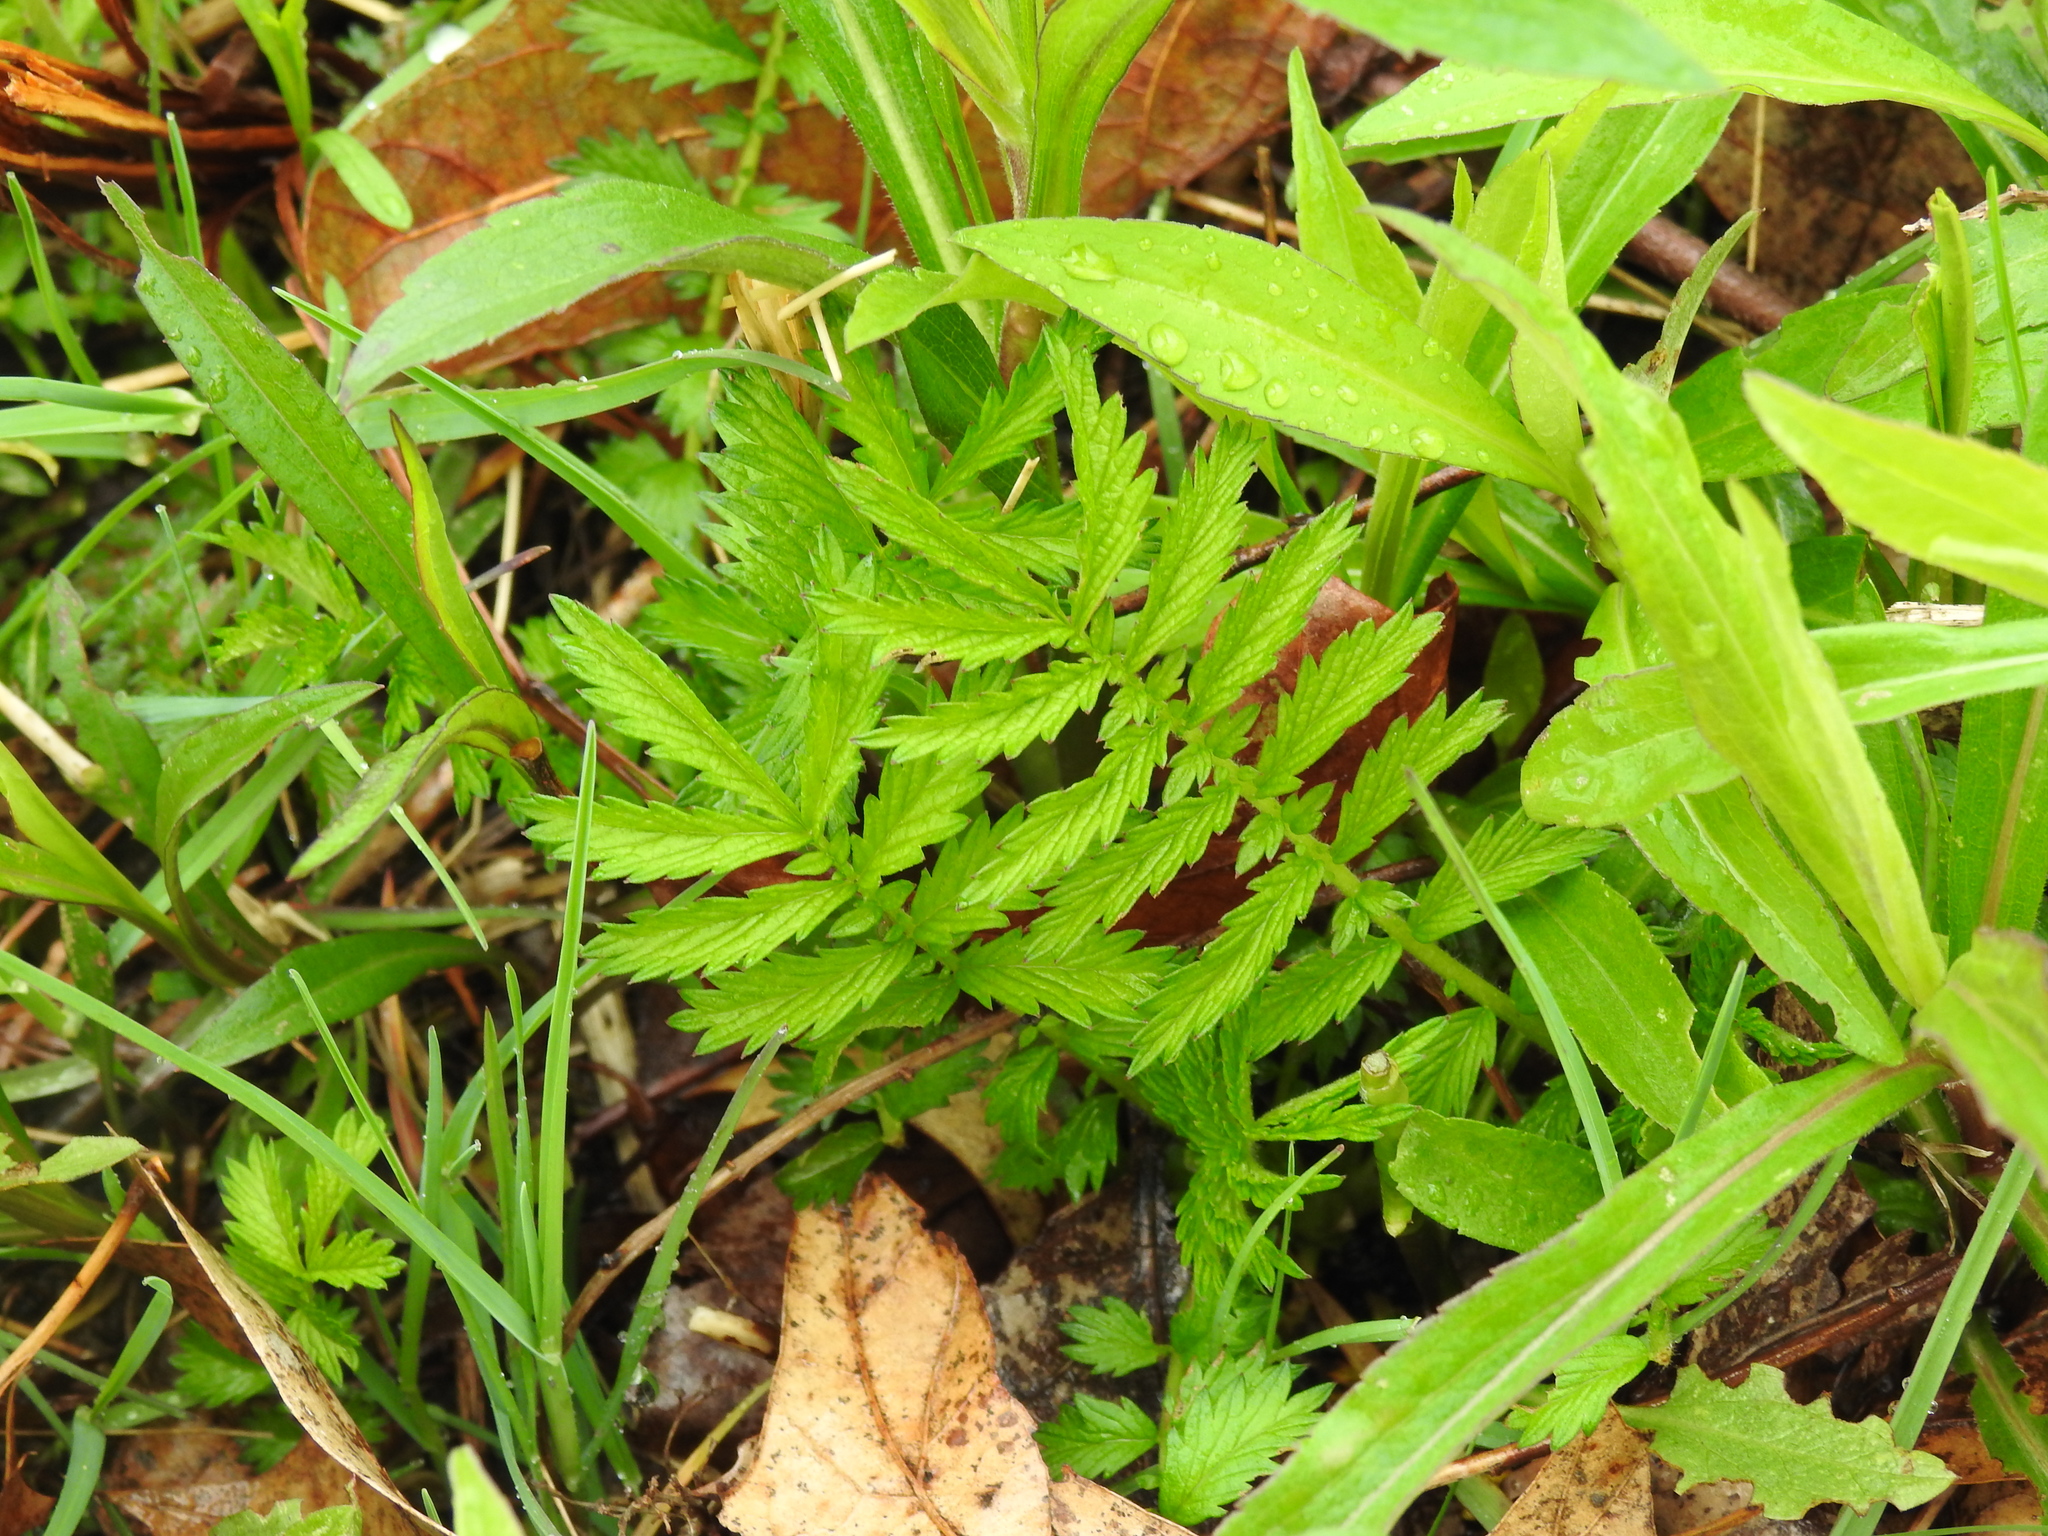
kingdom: Plantae
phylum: Tracheophyta
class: Magnoliopsida
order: Rosales
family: Rosaceae
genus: Agrimonia
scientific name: Agrimonia parviflora
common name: Harvest-lice
